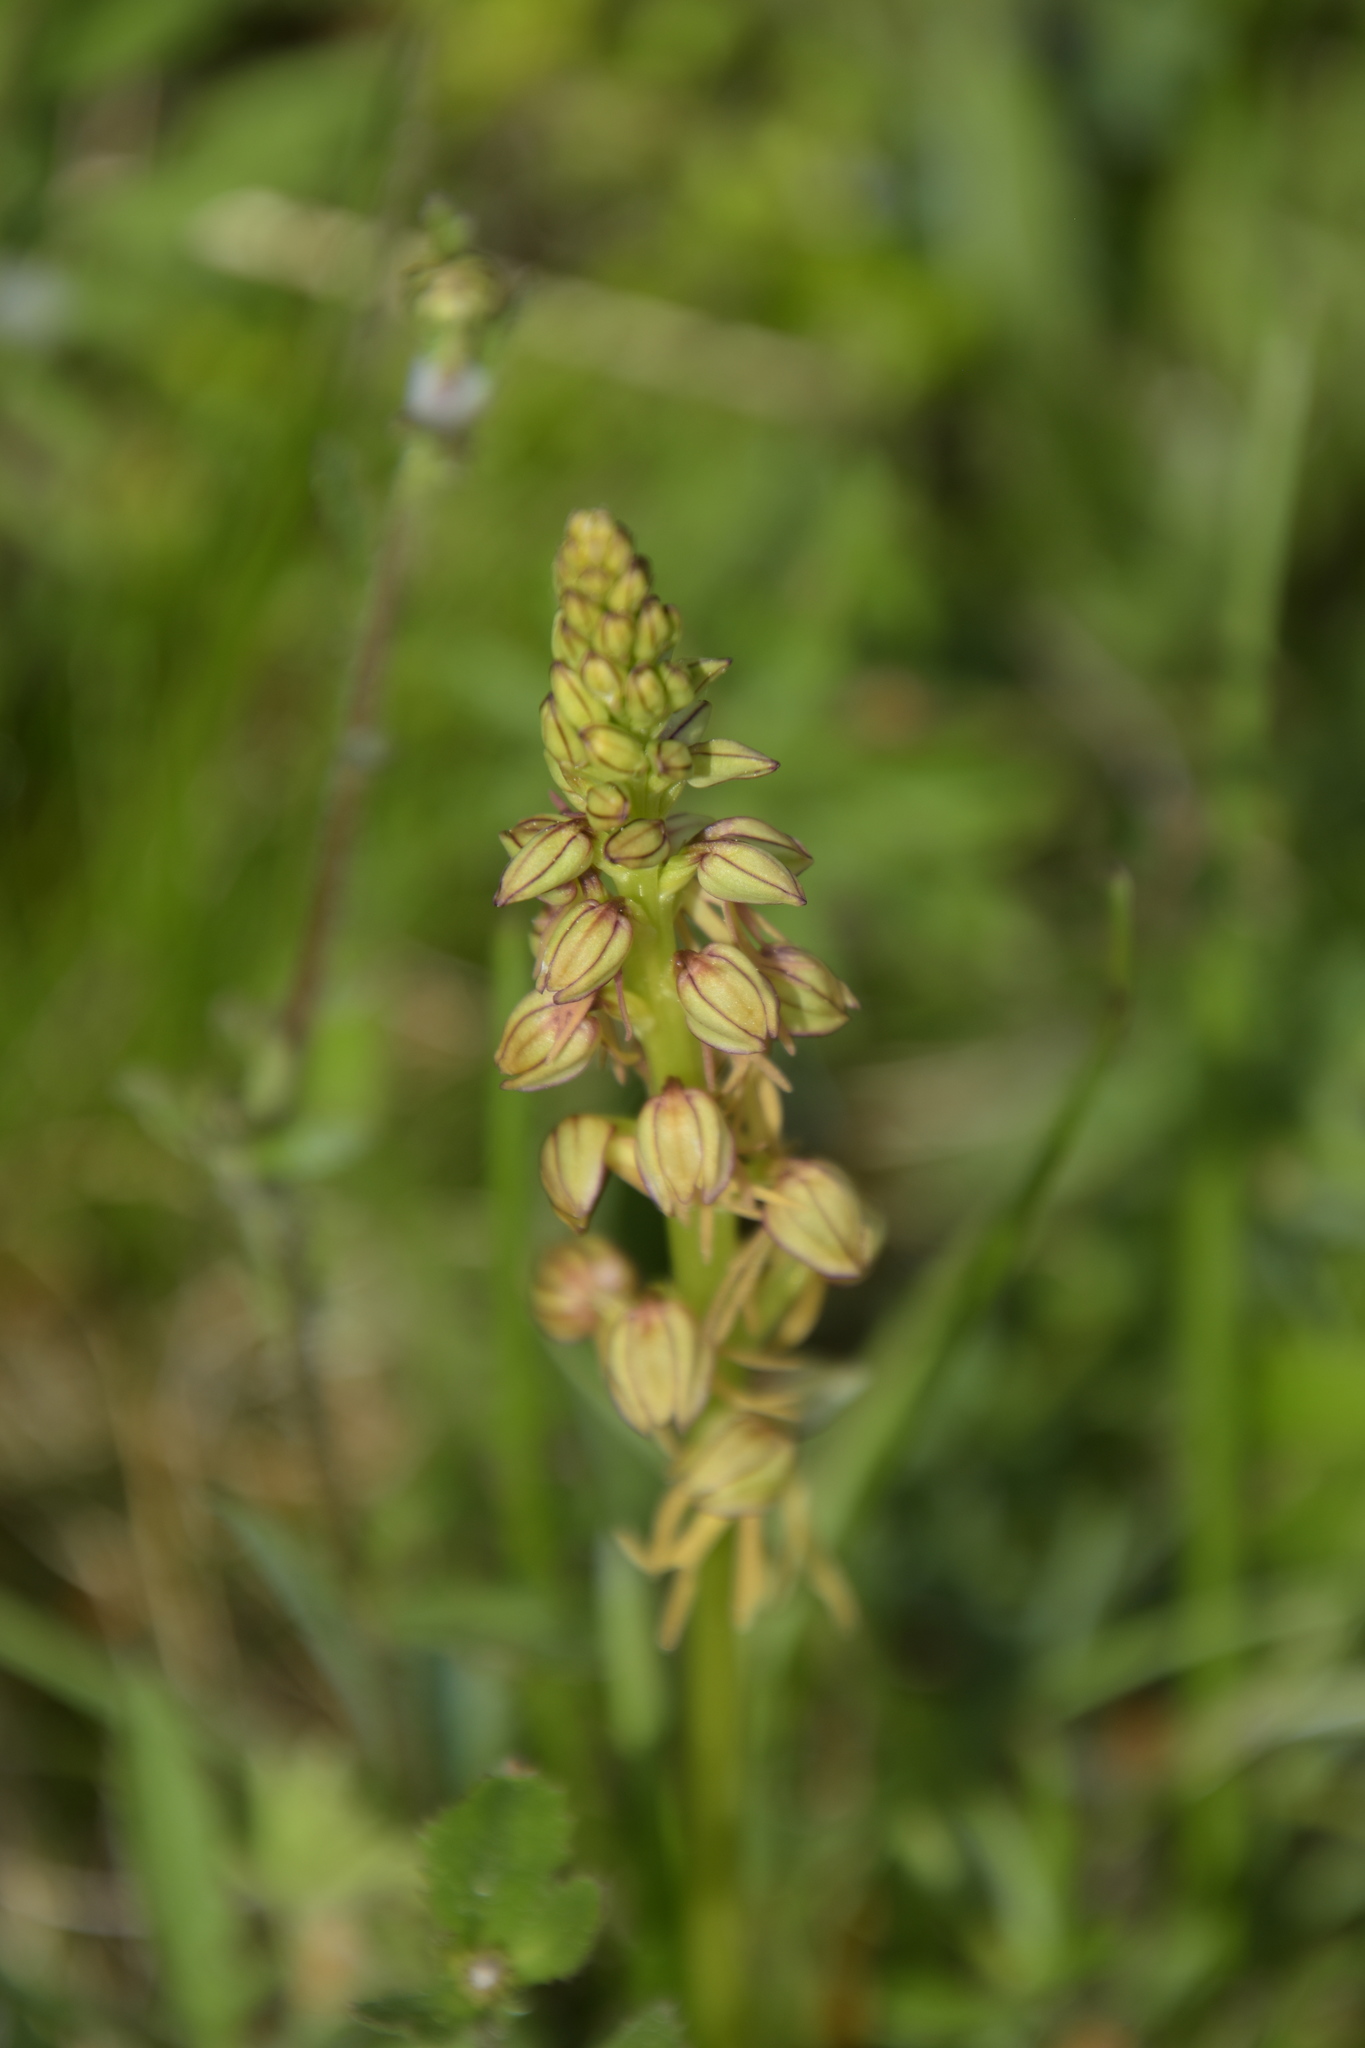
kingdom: Plantae
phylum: Tracheophyta
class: Liliopsida
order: Asparagales
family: Orchidaceae
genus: Orchis
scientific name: Orchis anthropophora
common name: Man orchid
